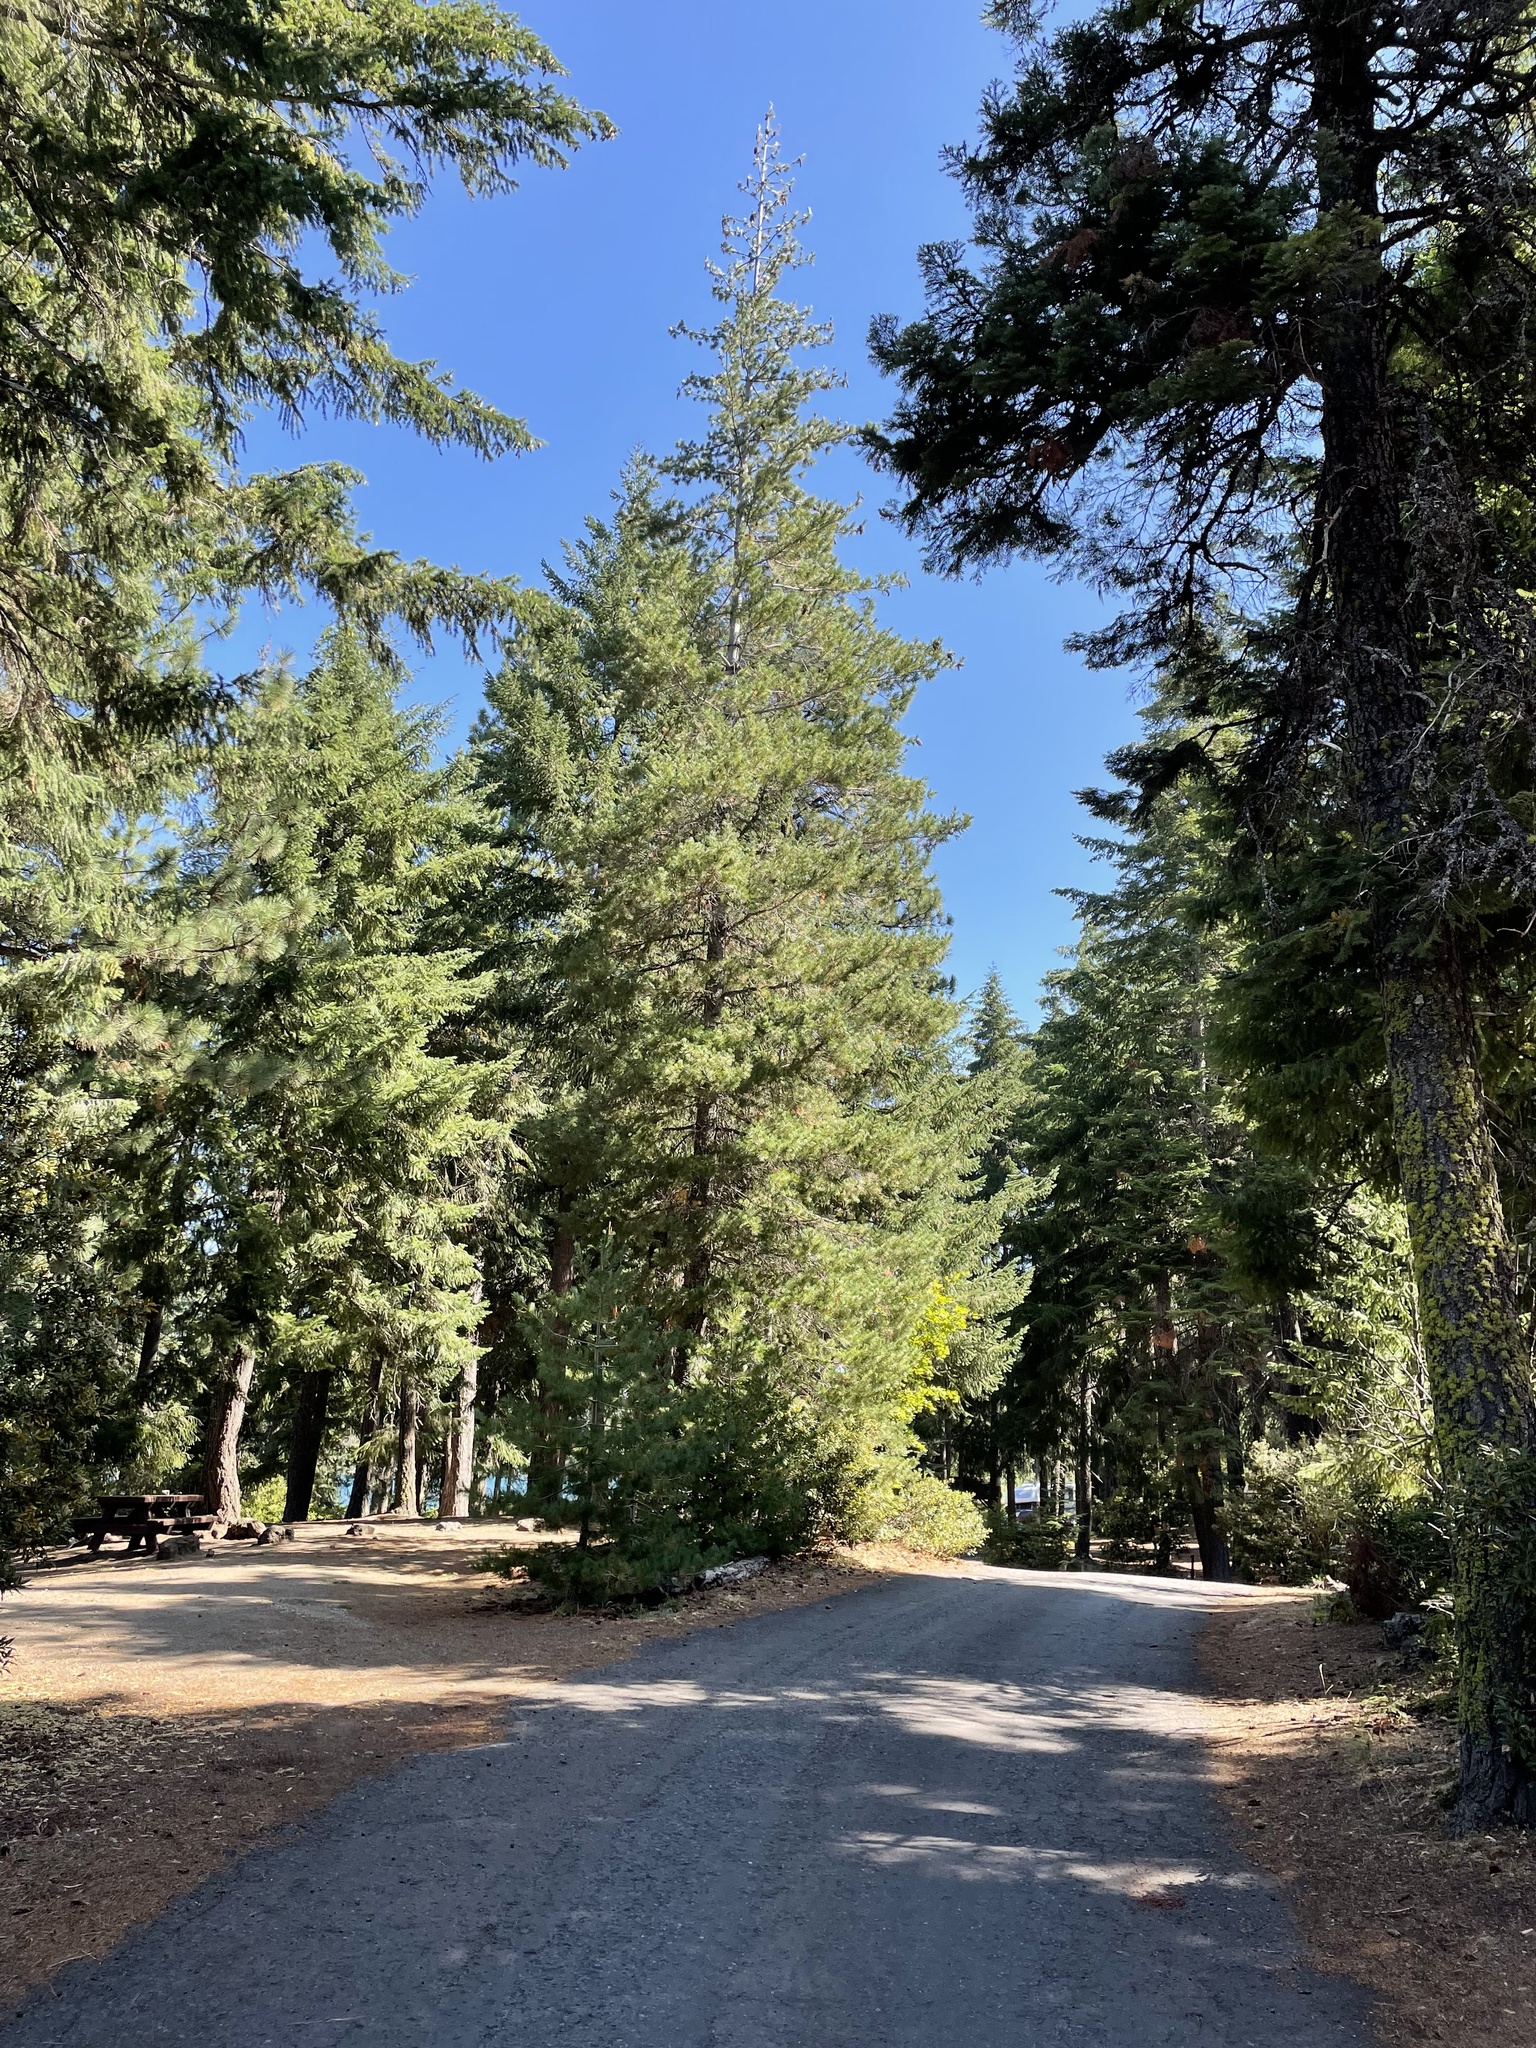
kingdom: Plantae
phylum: Tracheophyta
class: Pinopsida
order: Pinales
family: Pinaceae
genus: Pinus
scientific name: Pinus monticola
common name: Western white pine
